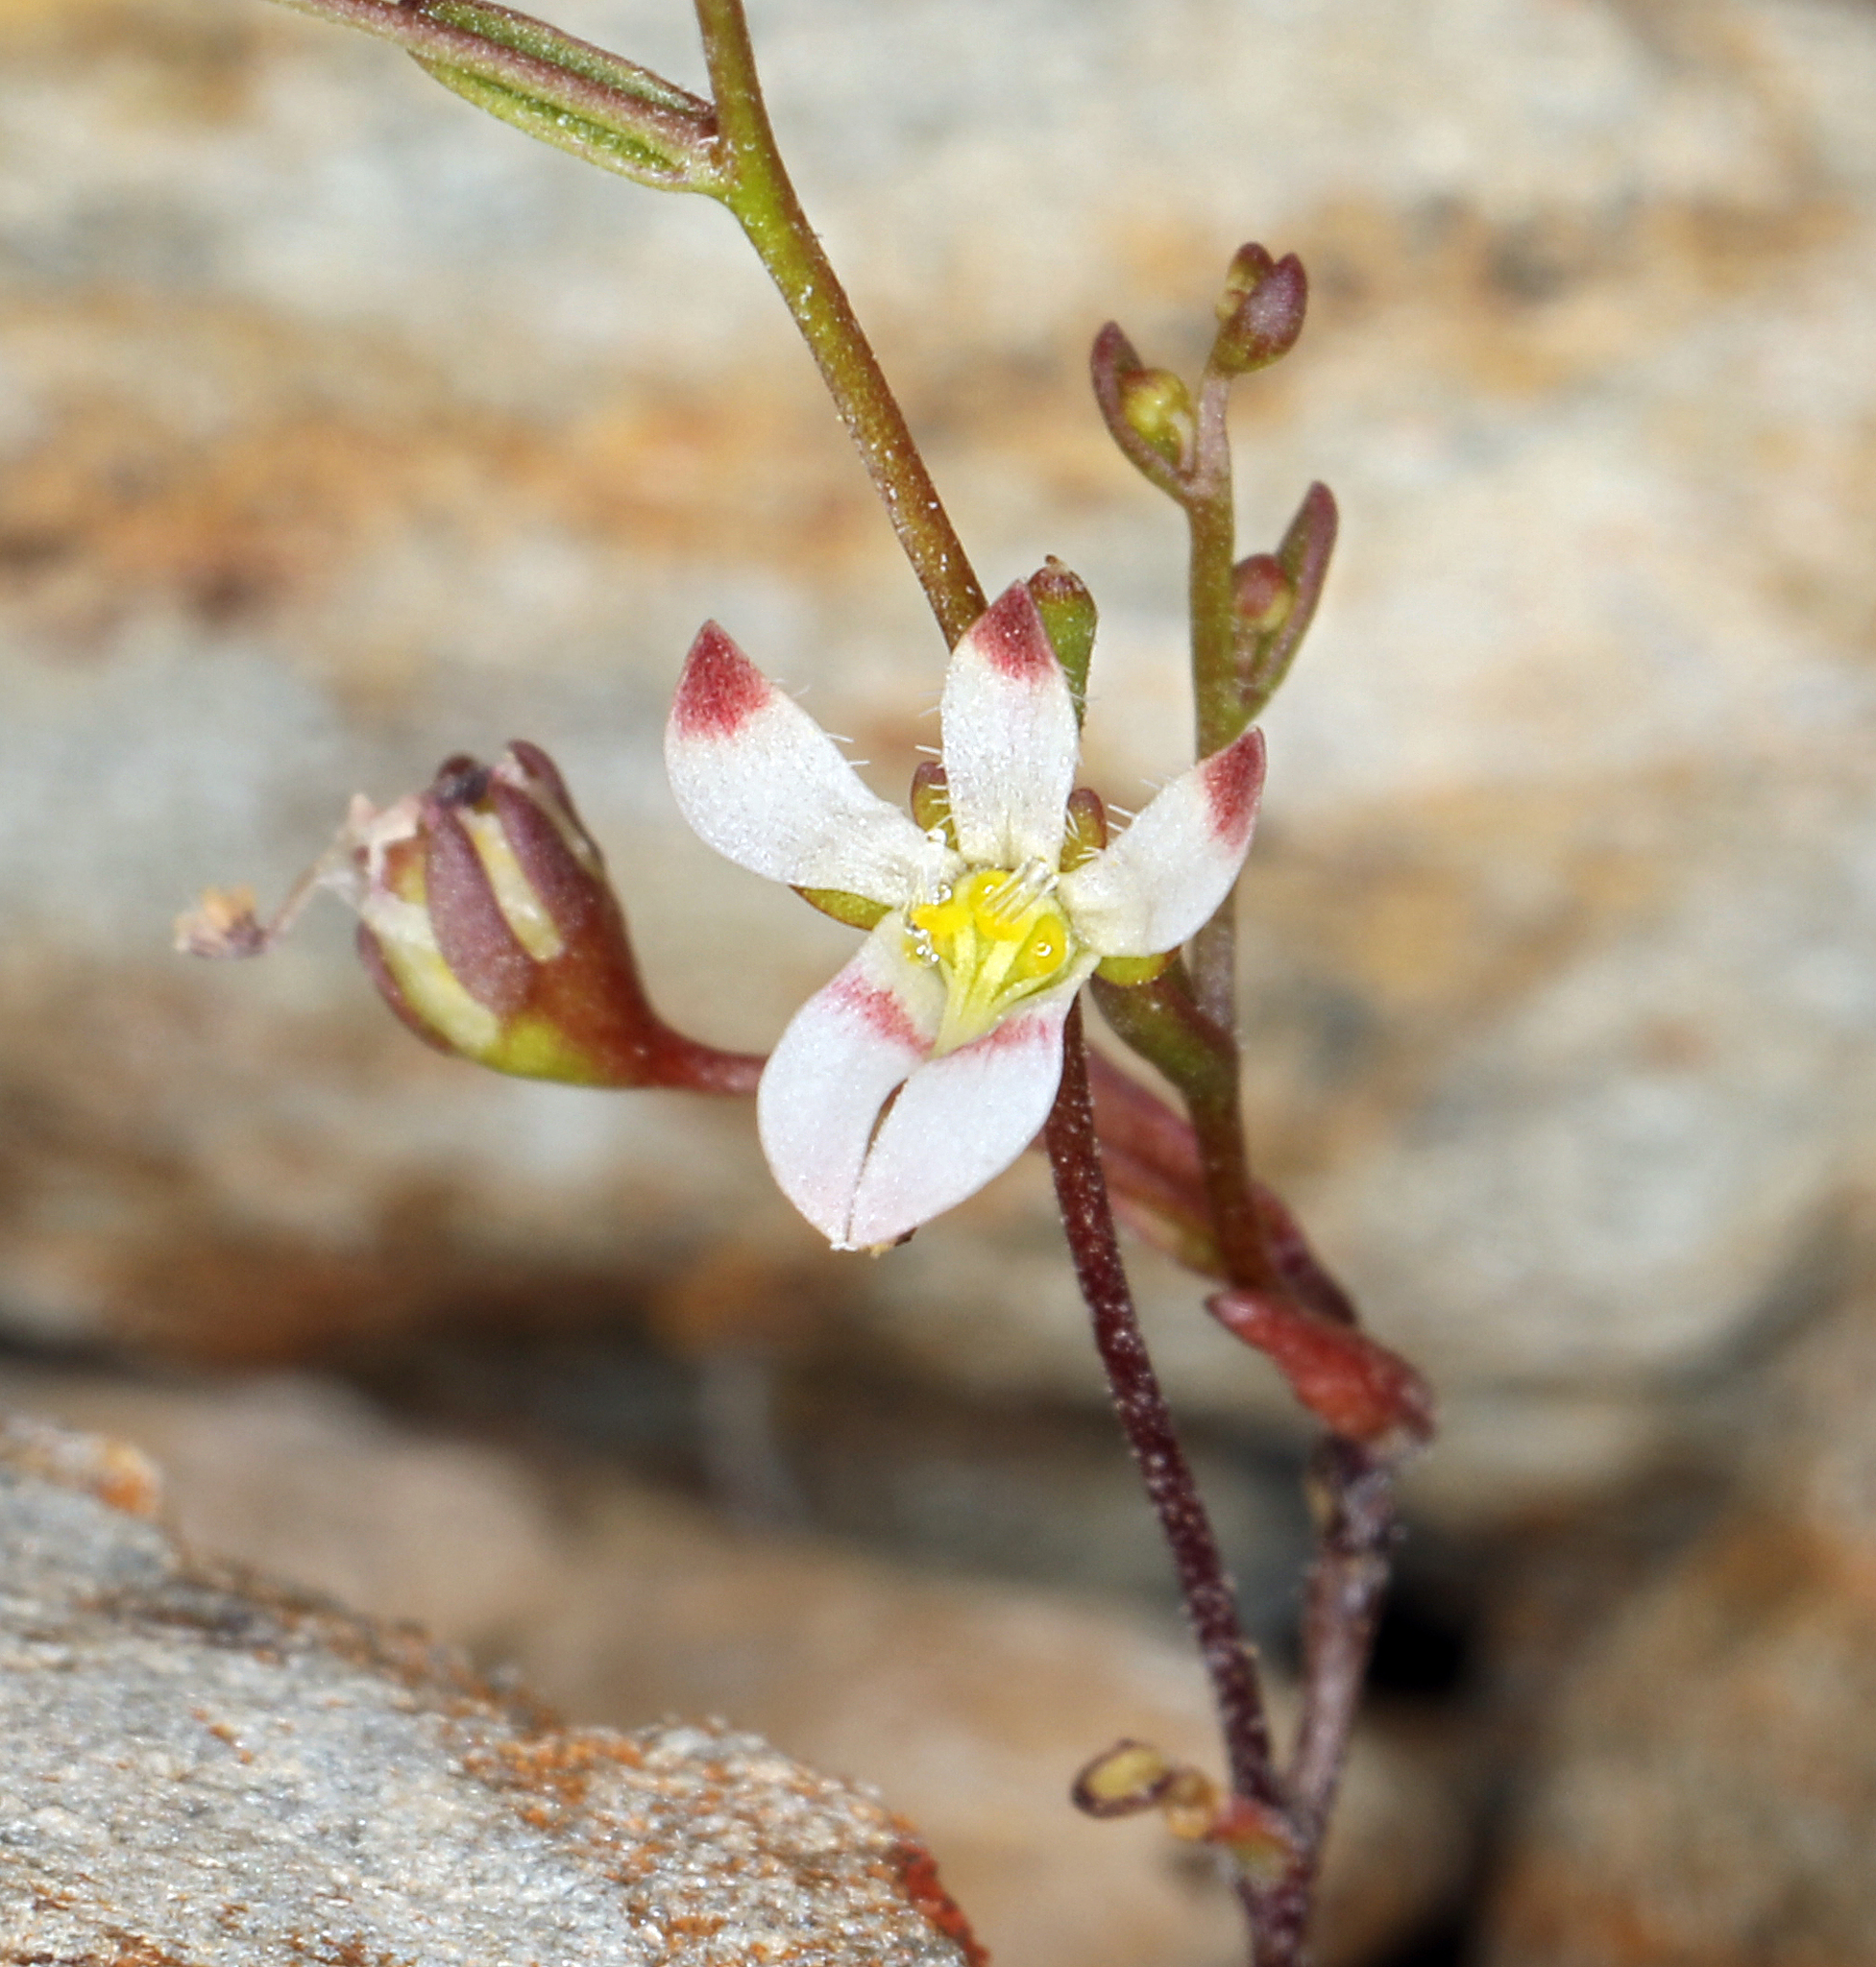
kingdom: Plantae
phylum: Tracheophyta
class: Magnoliopsida
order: Asterales
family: Campanulaceae
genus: Nemacladus
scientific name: Nemacladus orientalis
